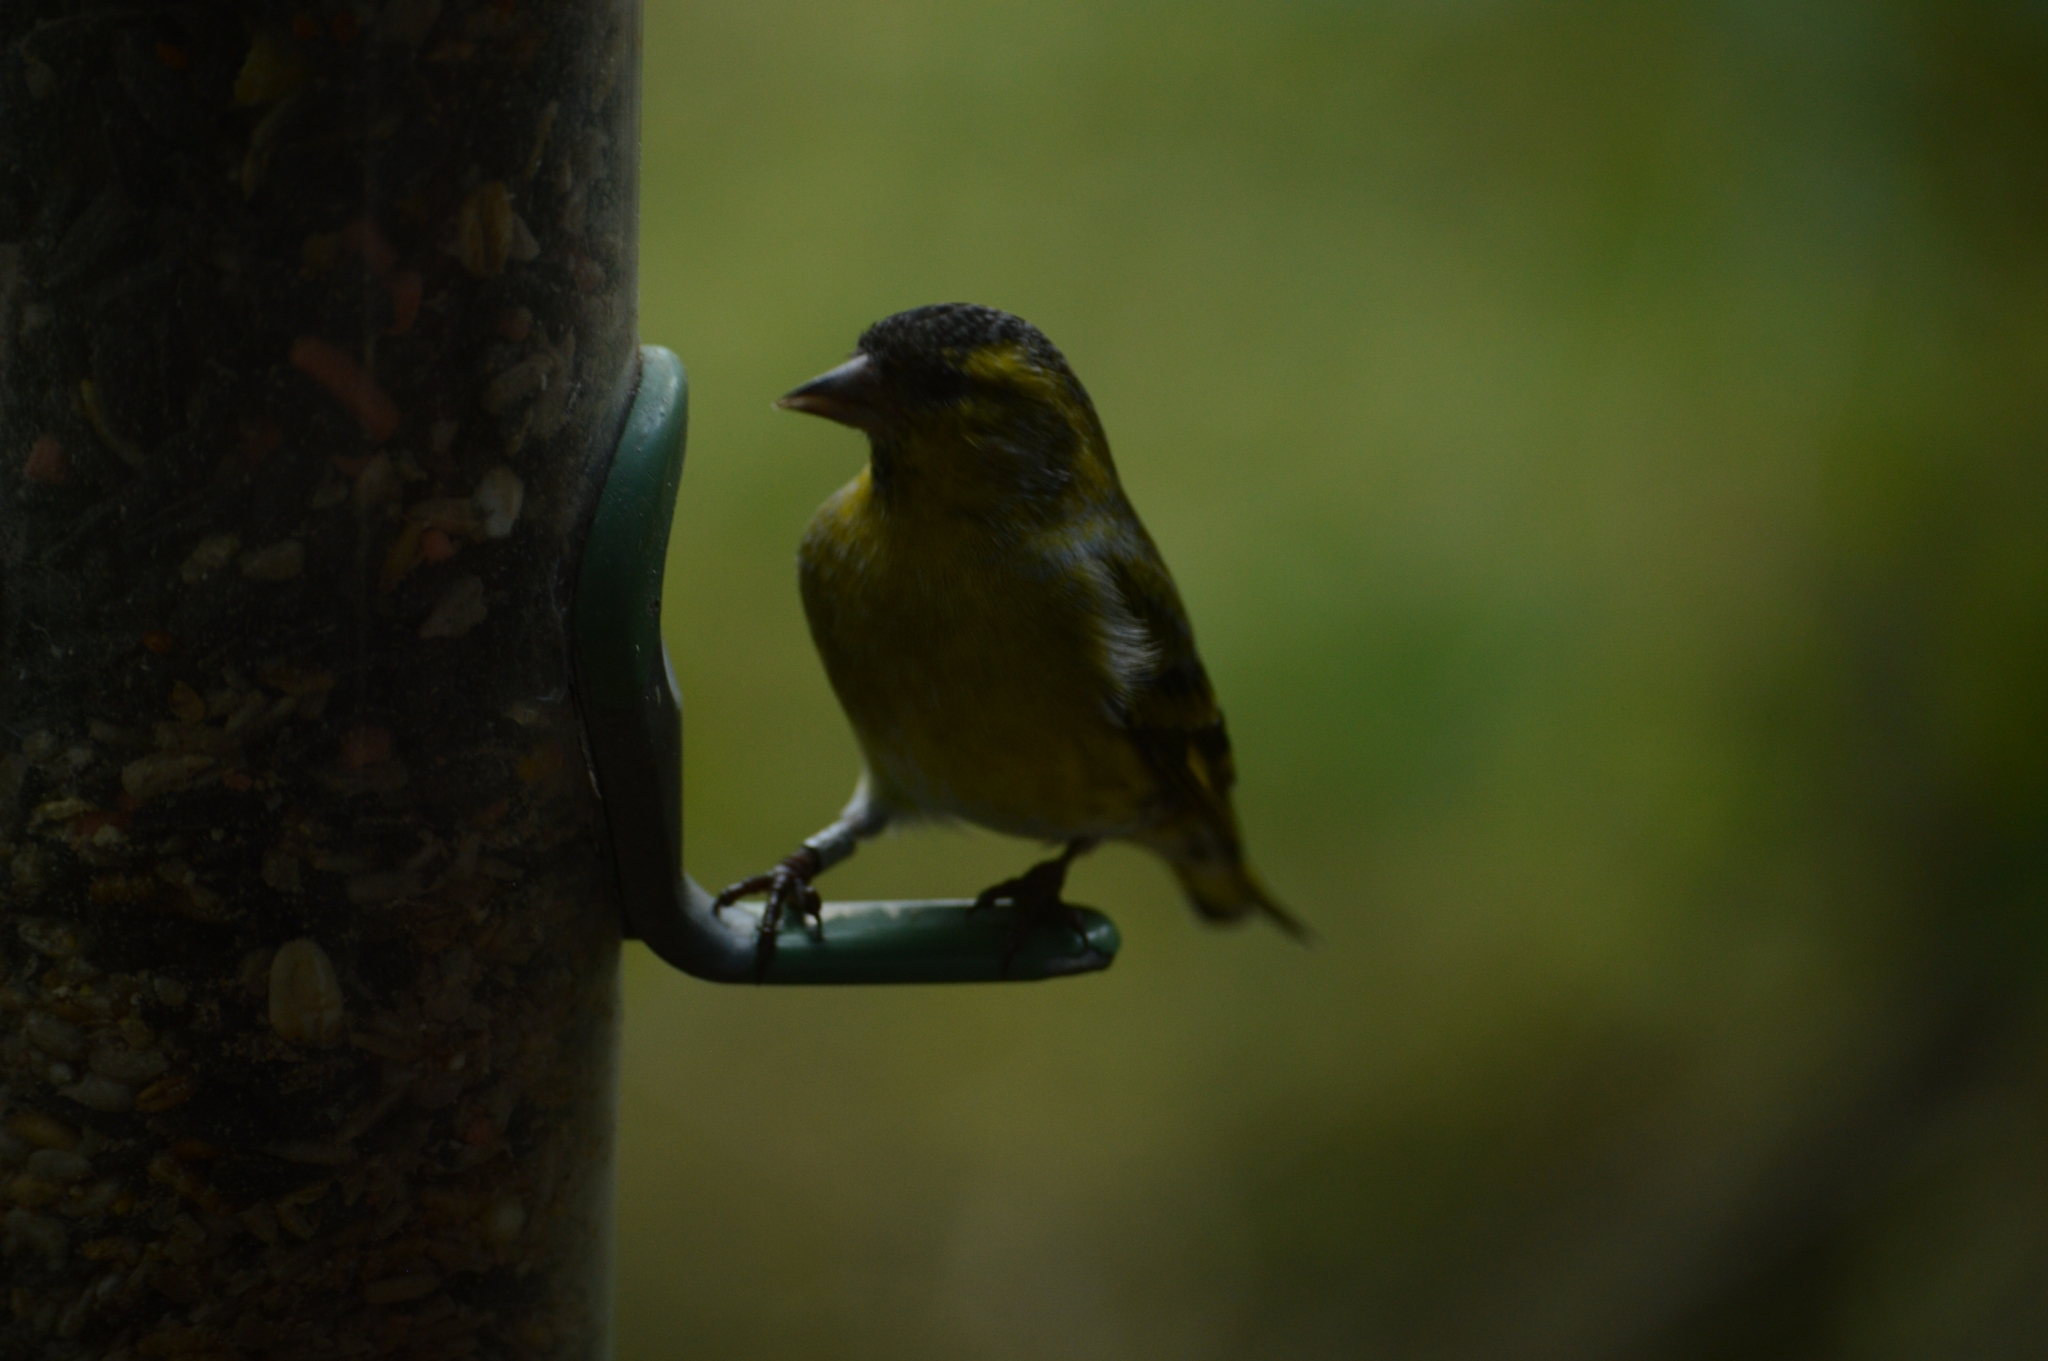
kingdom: Animalia
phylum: Chordata
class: Aves
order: Passeriformes
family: Fringillidae
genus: Spinus
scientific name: Spinus spinus
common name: Eurasian siskin
